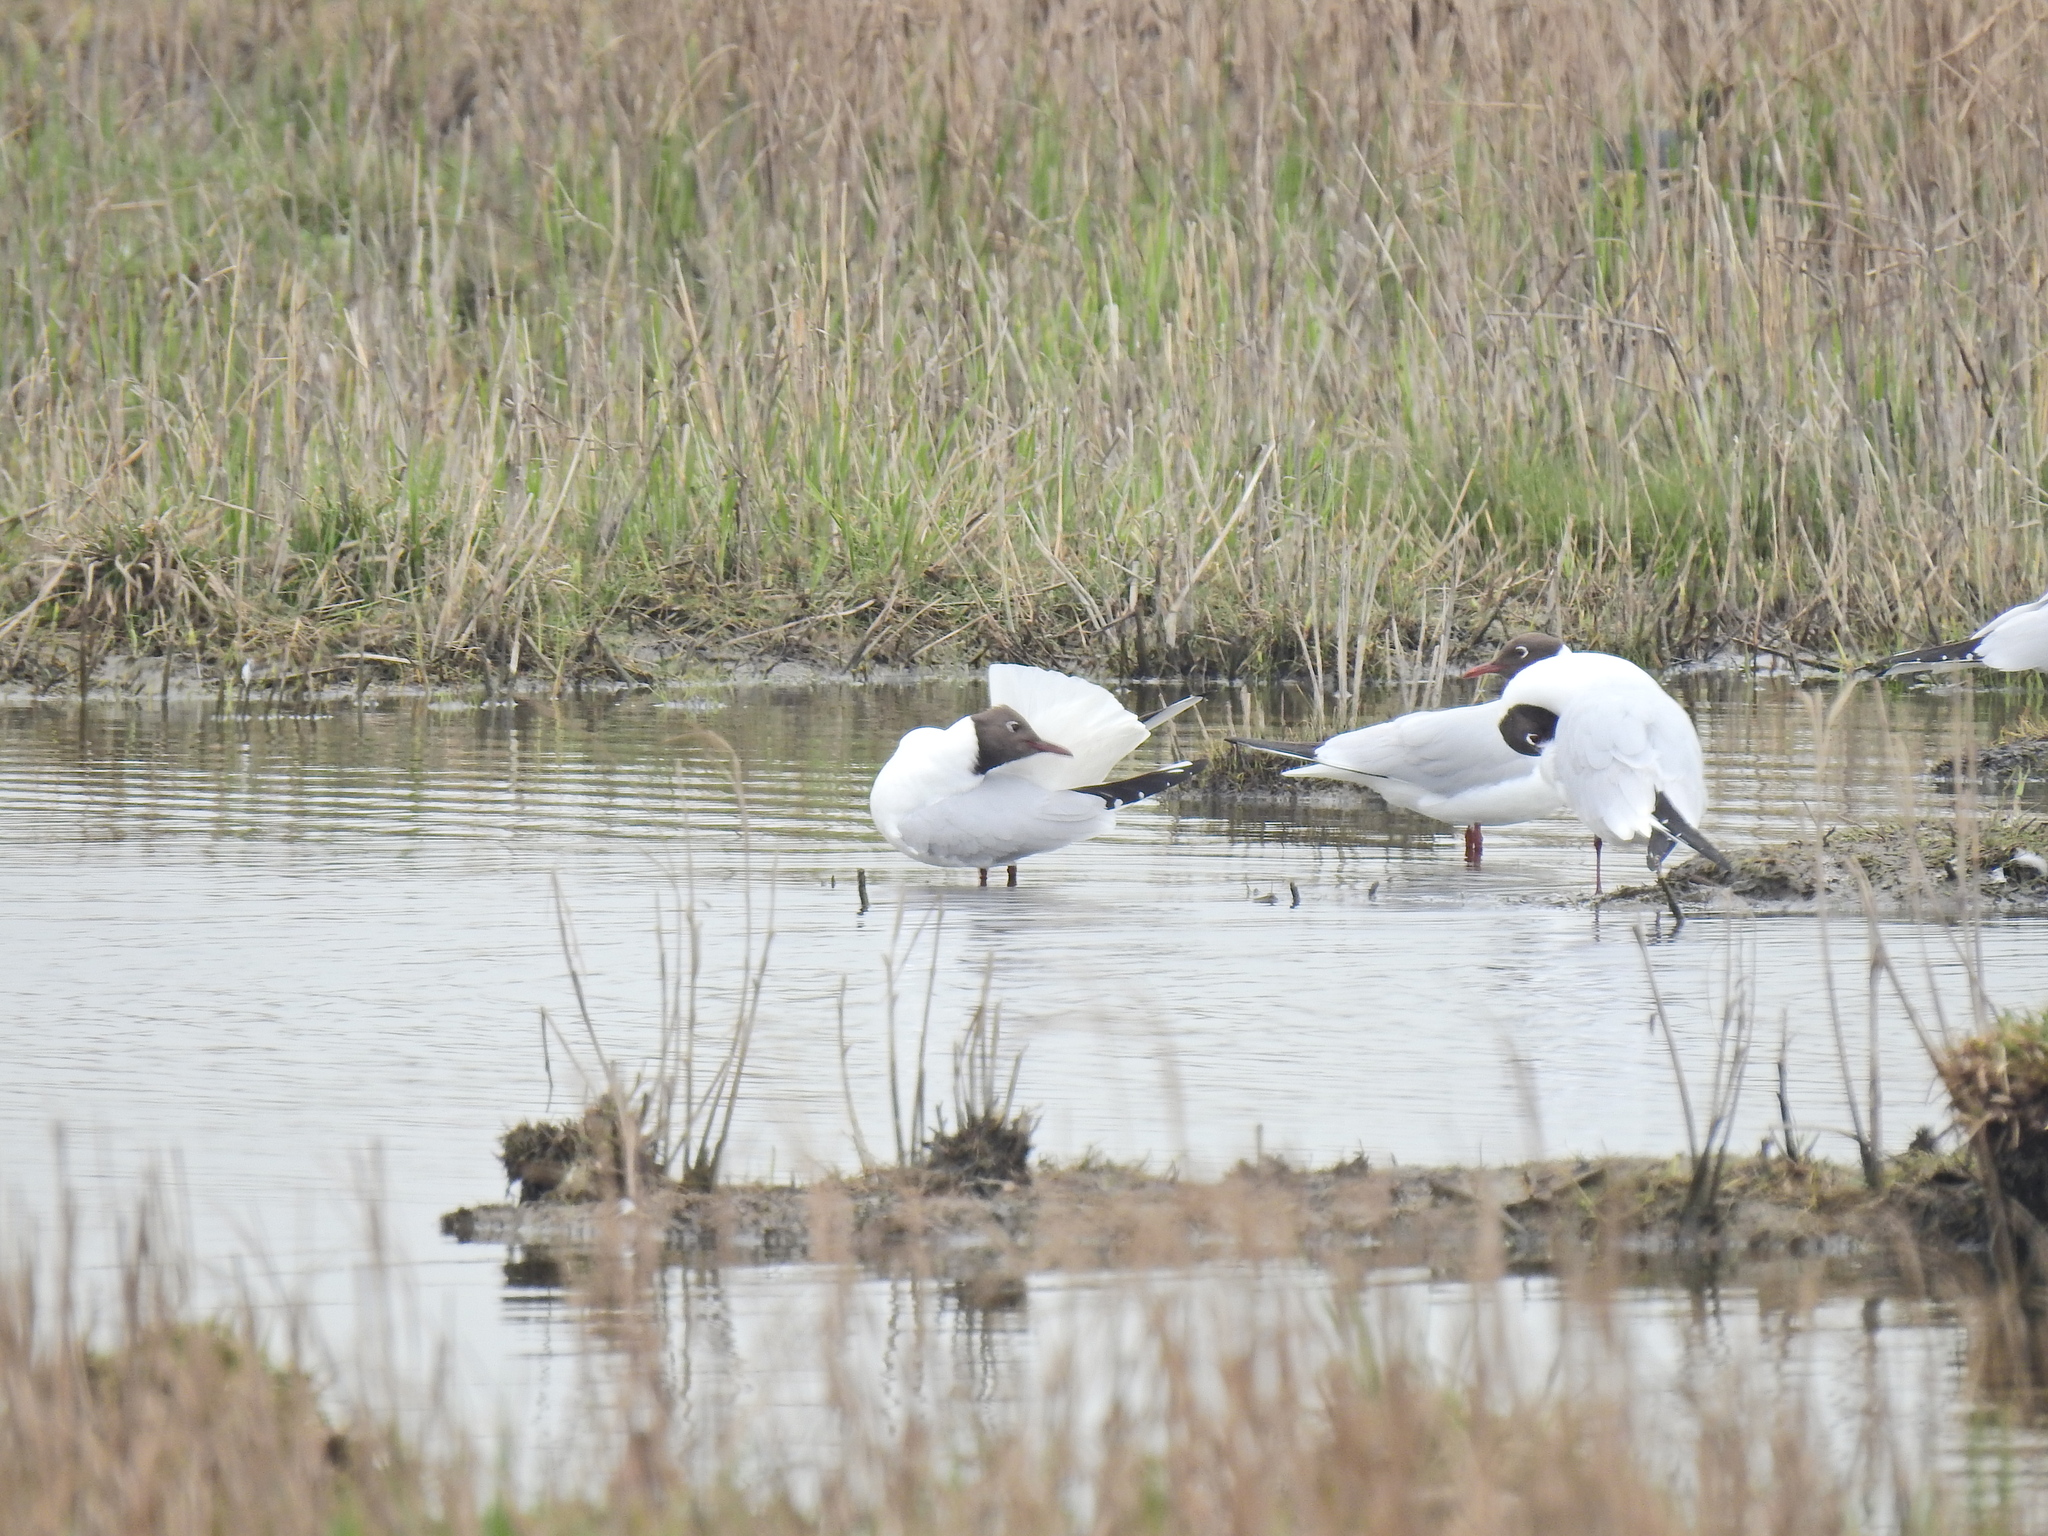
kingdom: Animalia
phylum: Chordata
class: Aves
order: Charadriiformes
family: Laridae
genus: Chroicocephalus
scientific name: Chroicocephalus ridibundus
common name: Black-headed gull
